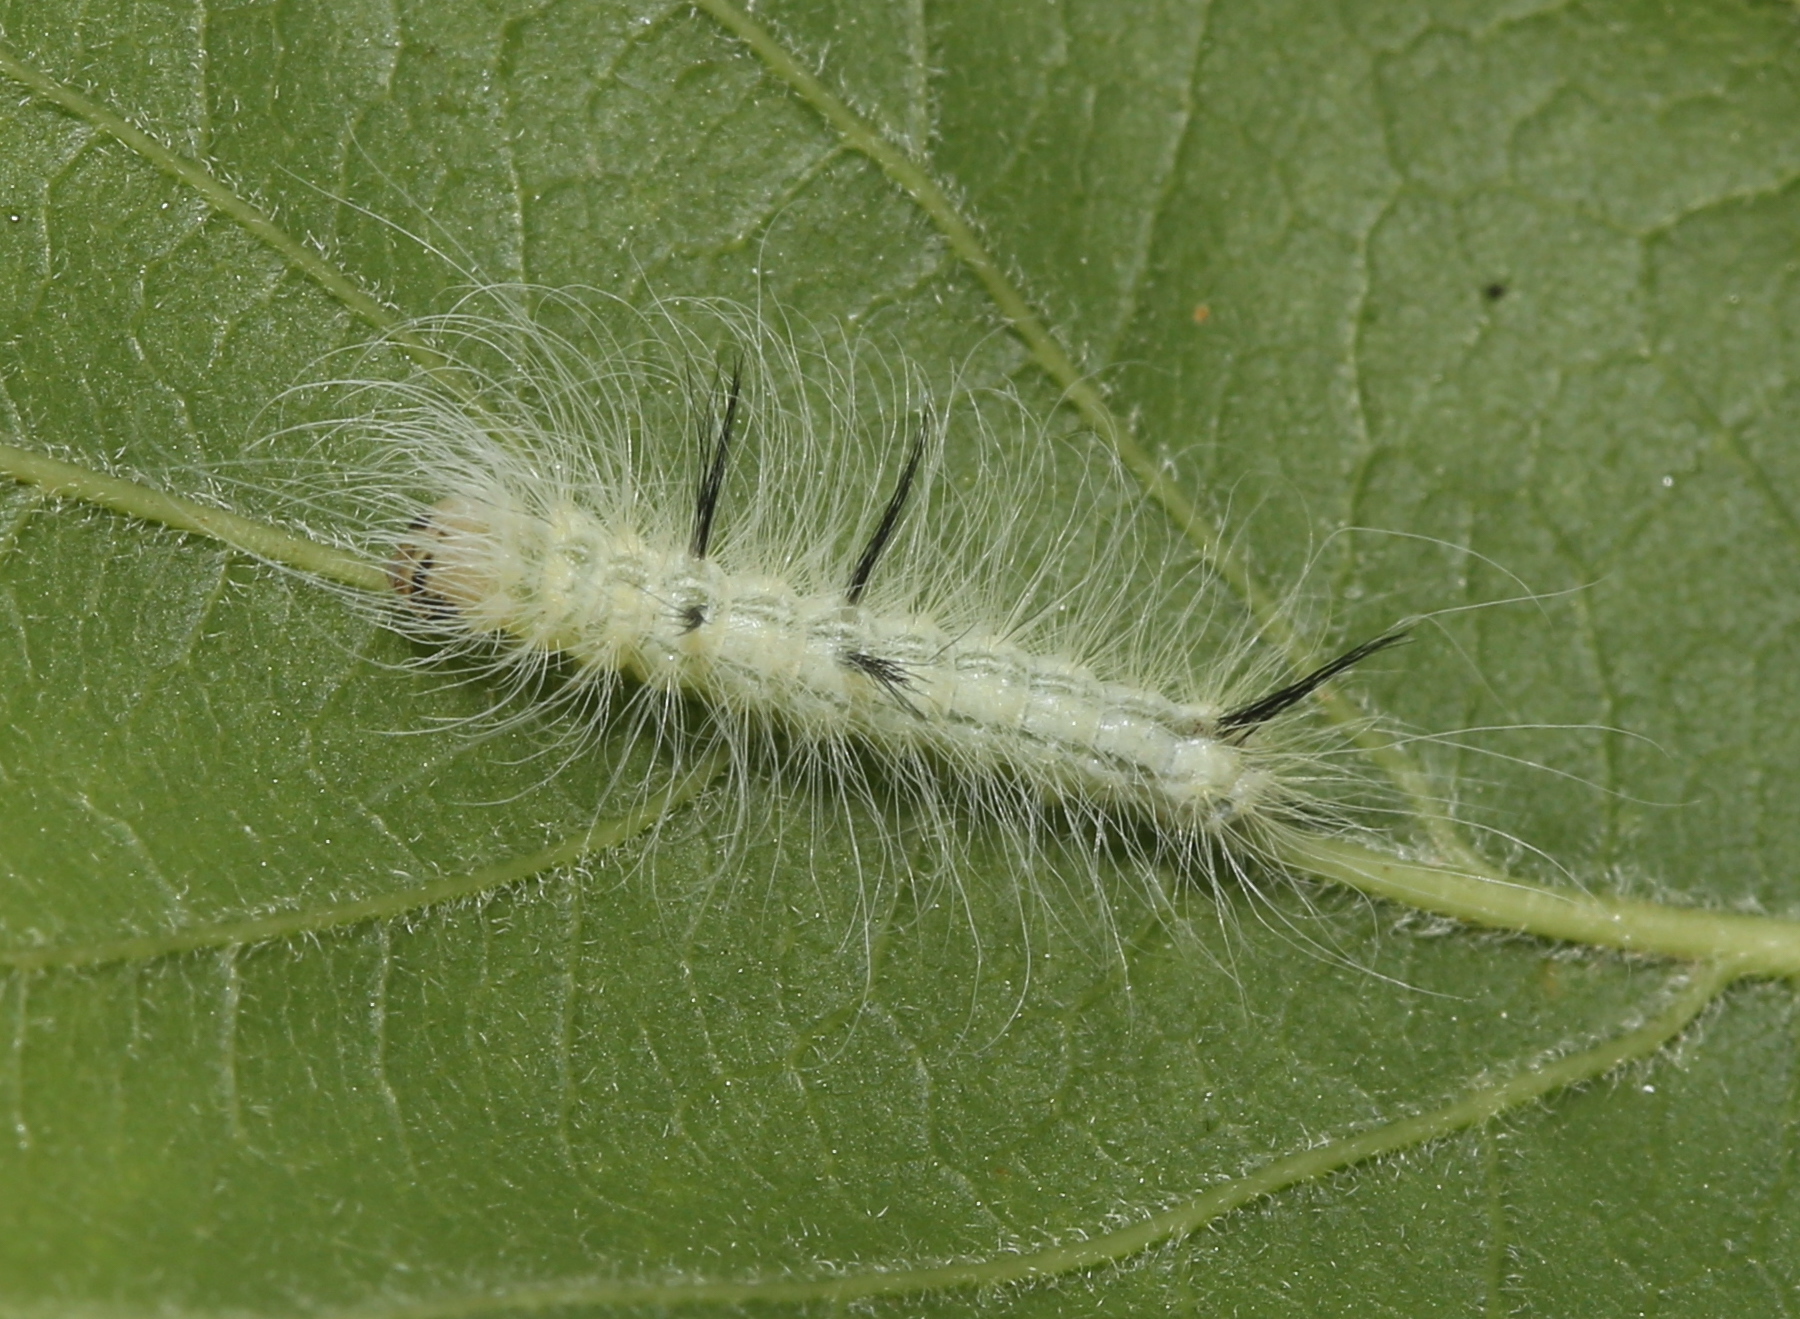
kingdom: Animalia
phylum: Arthropoda
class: Insecta
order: Lepidoptera
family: Noctuidae
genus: Acronicta
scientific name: Acronicta americana
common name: American dagger
